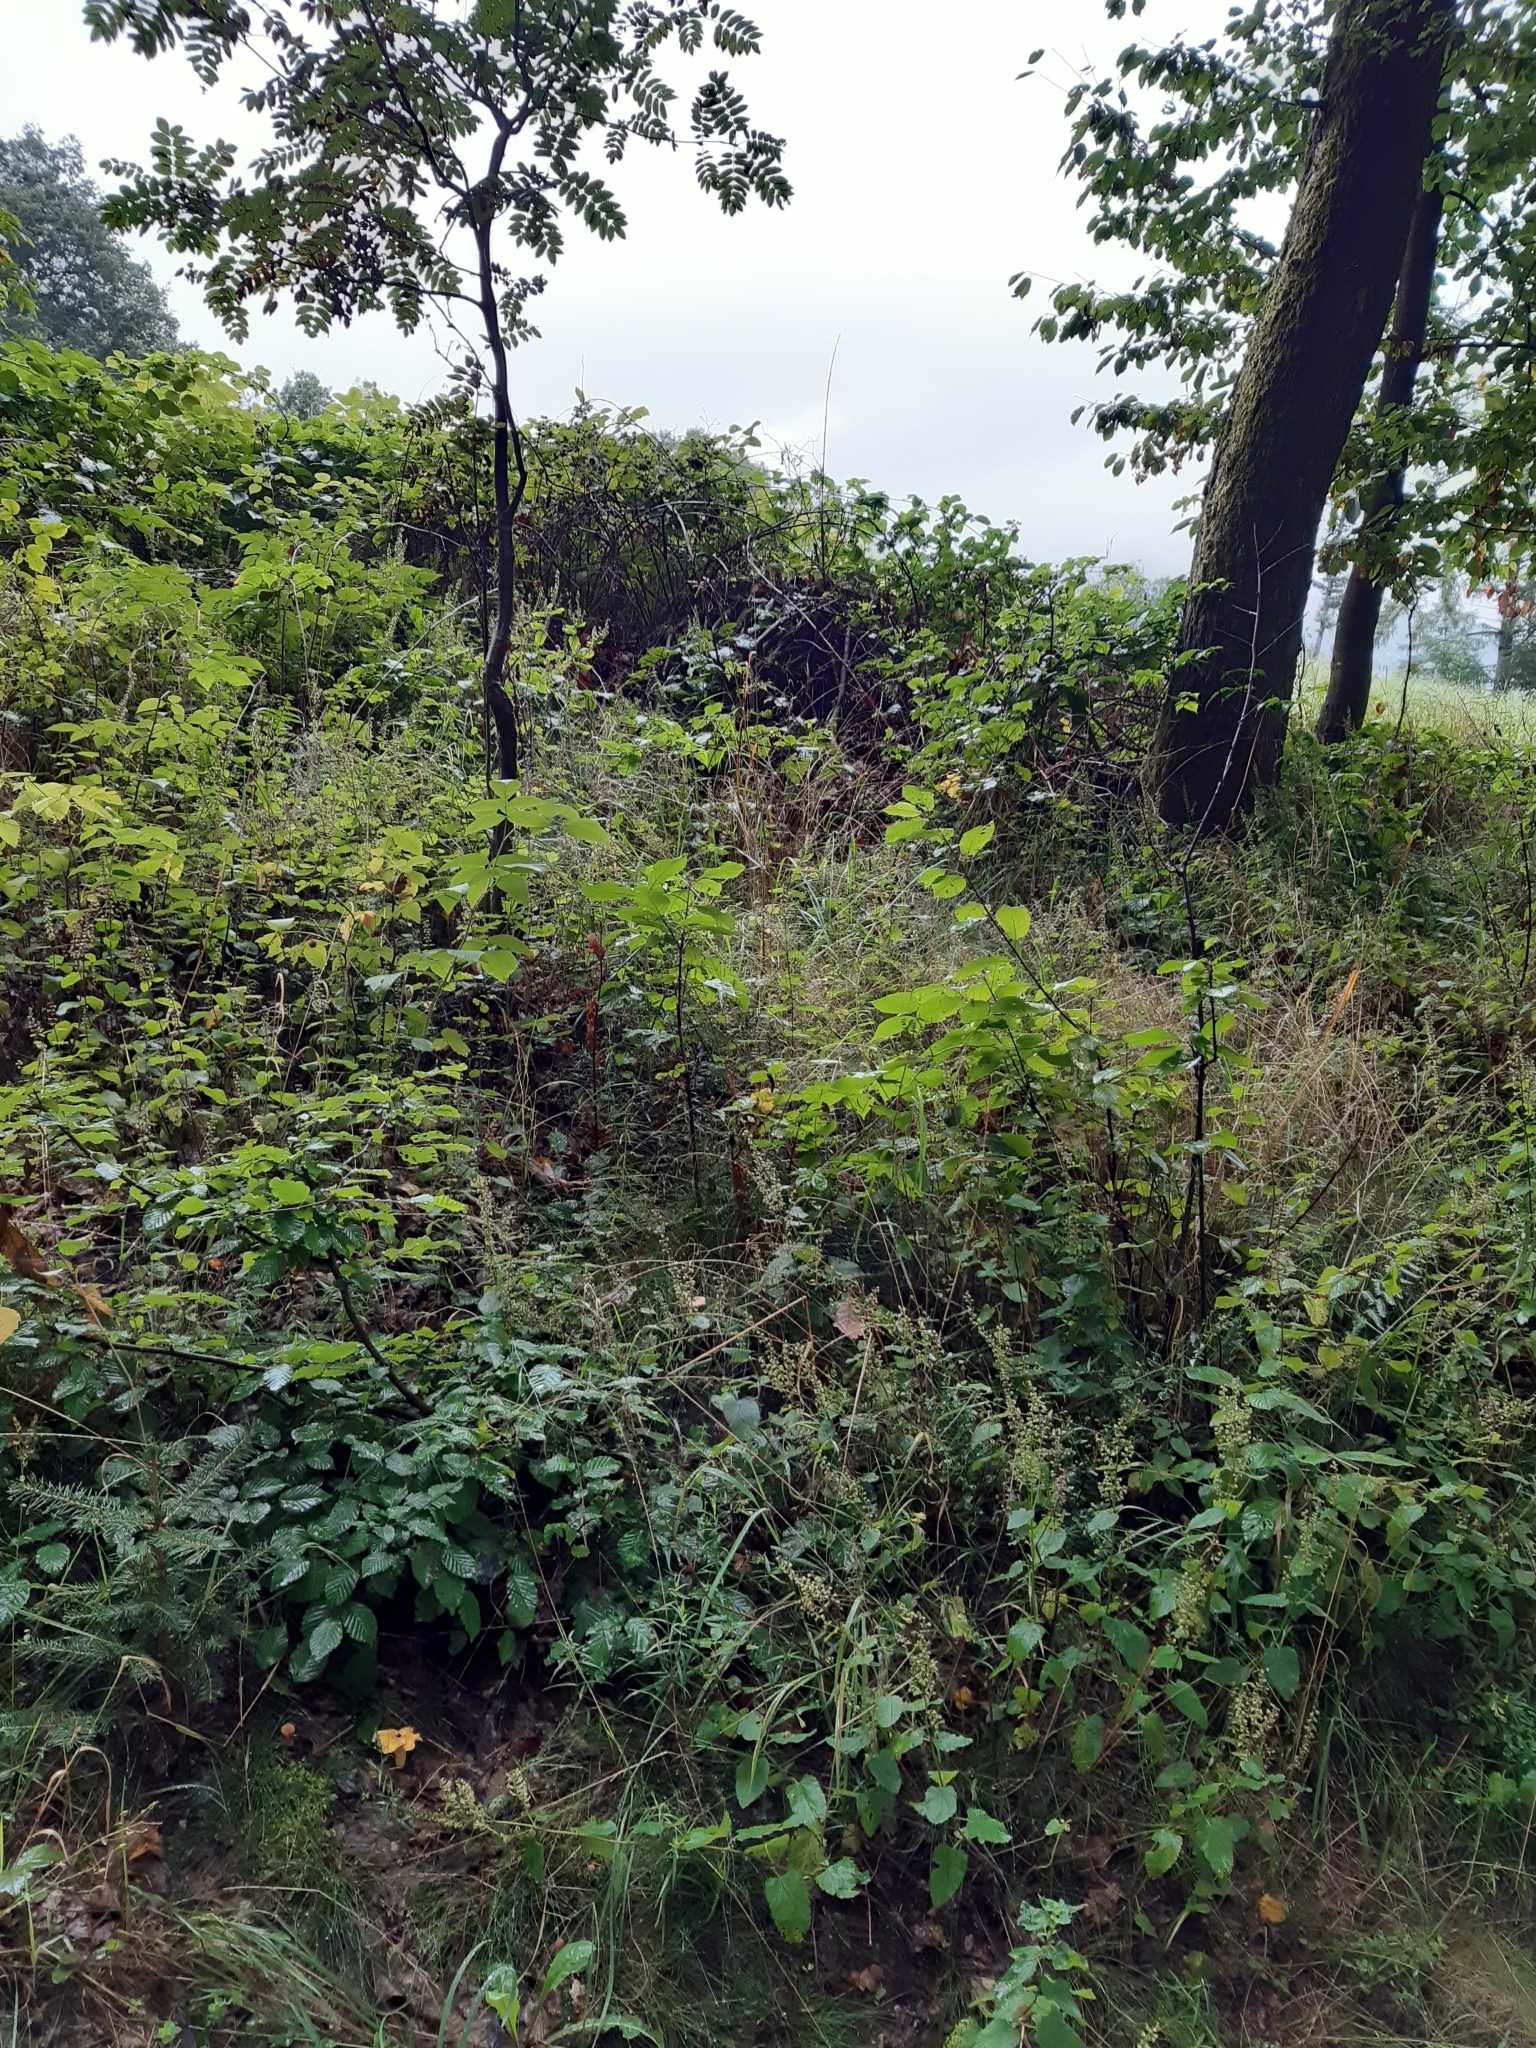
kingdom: Fungi
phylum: Basidiomycota
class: Agaricomycetes
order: Cantharellales
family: Hydnaceae
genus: Cantharellus
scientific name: Cantharellus cibarius
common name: Chanterelle
